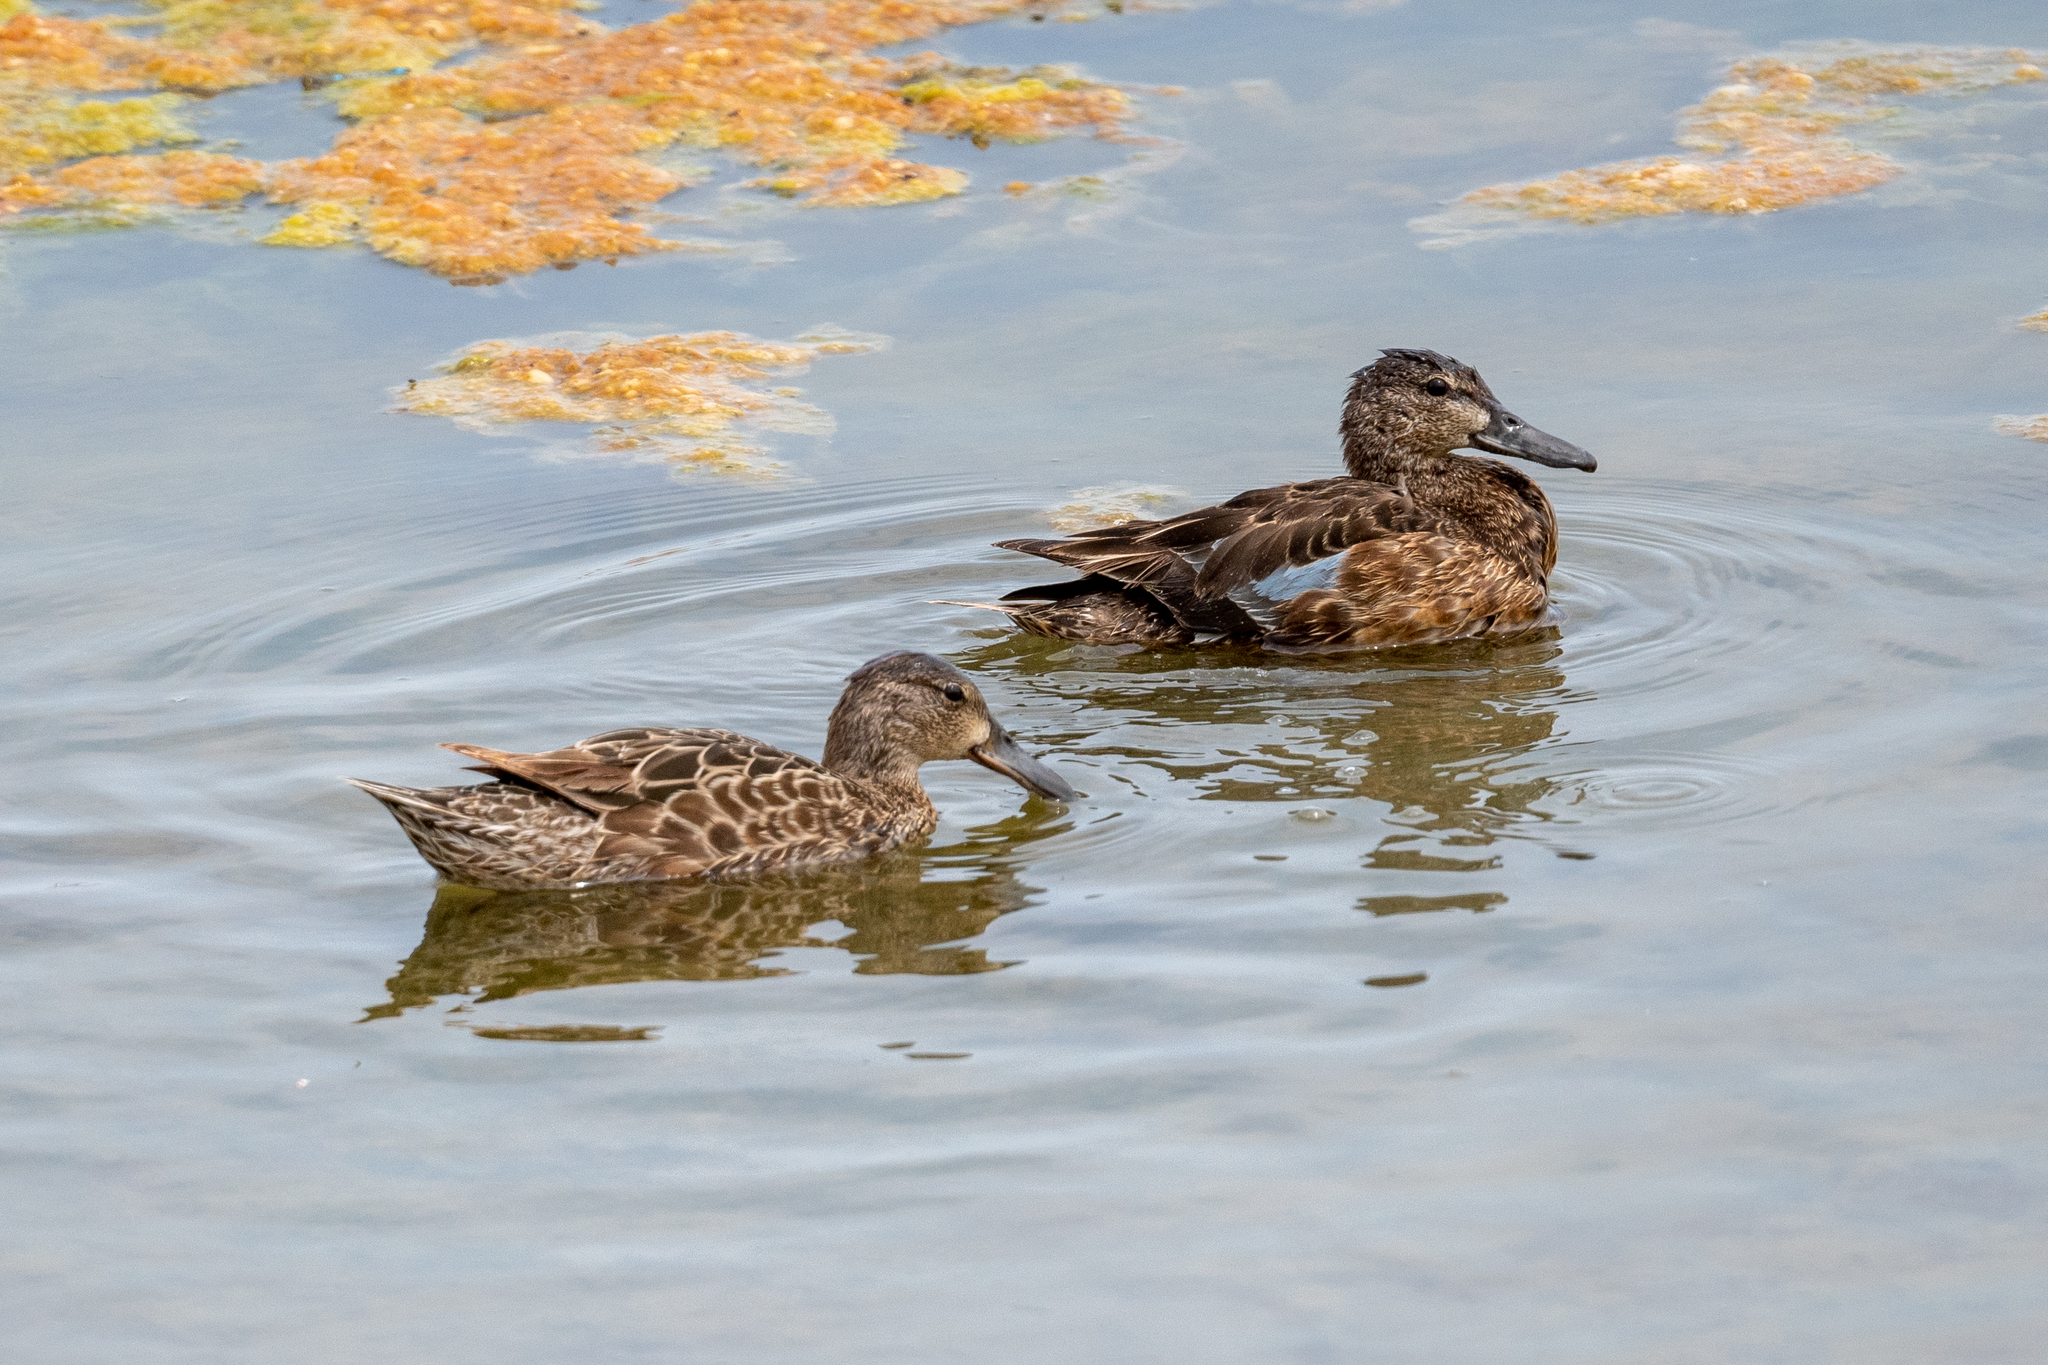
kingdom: Animalia
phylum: Chordata
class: Aves
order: Anseriformes
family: Anatidae
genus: Spatula
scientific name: Spatula cyanoptera
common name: Cinnamon teal
